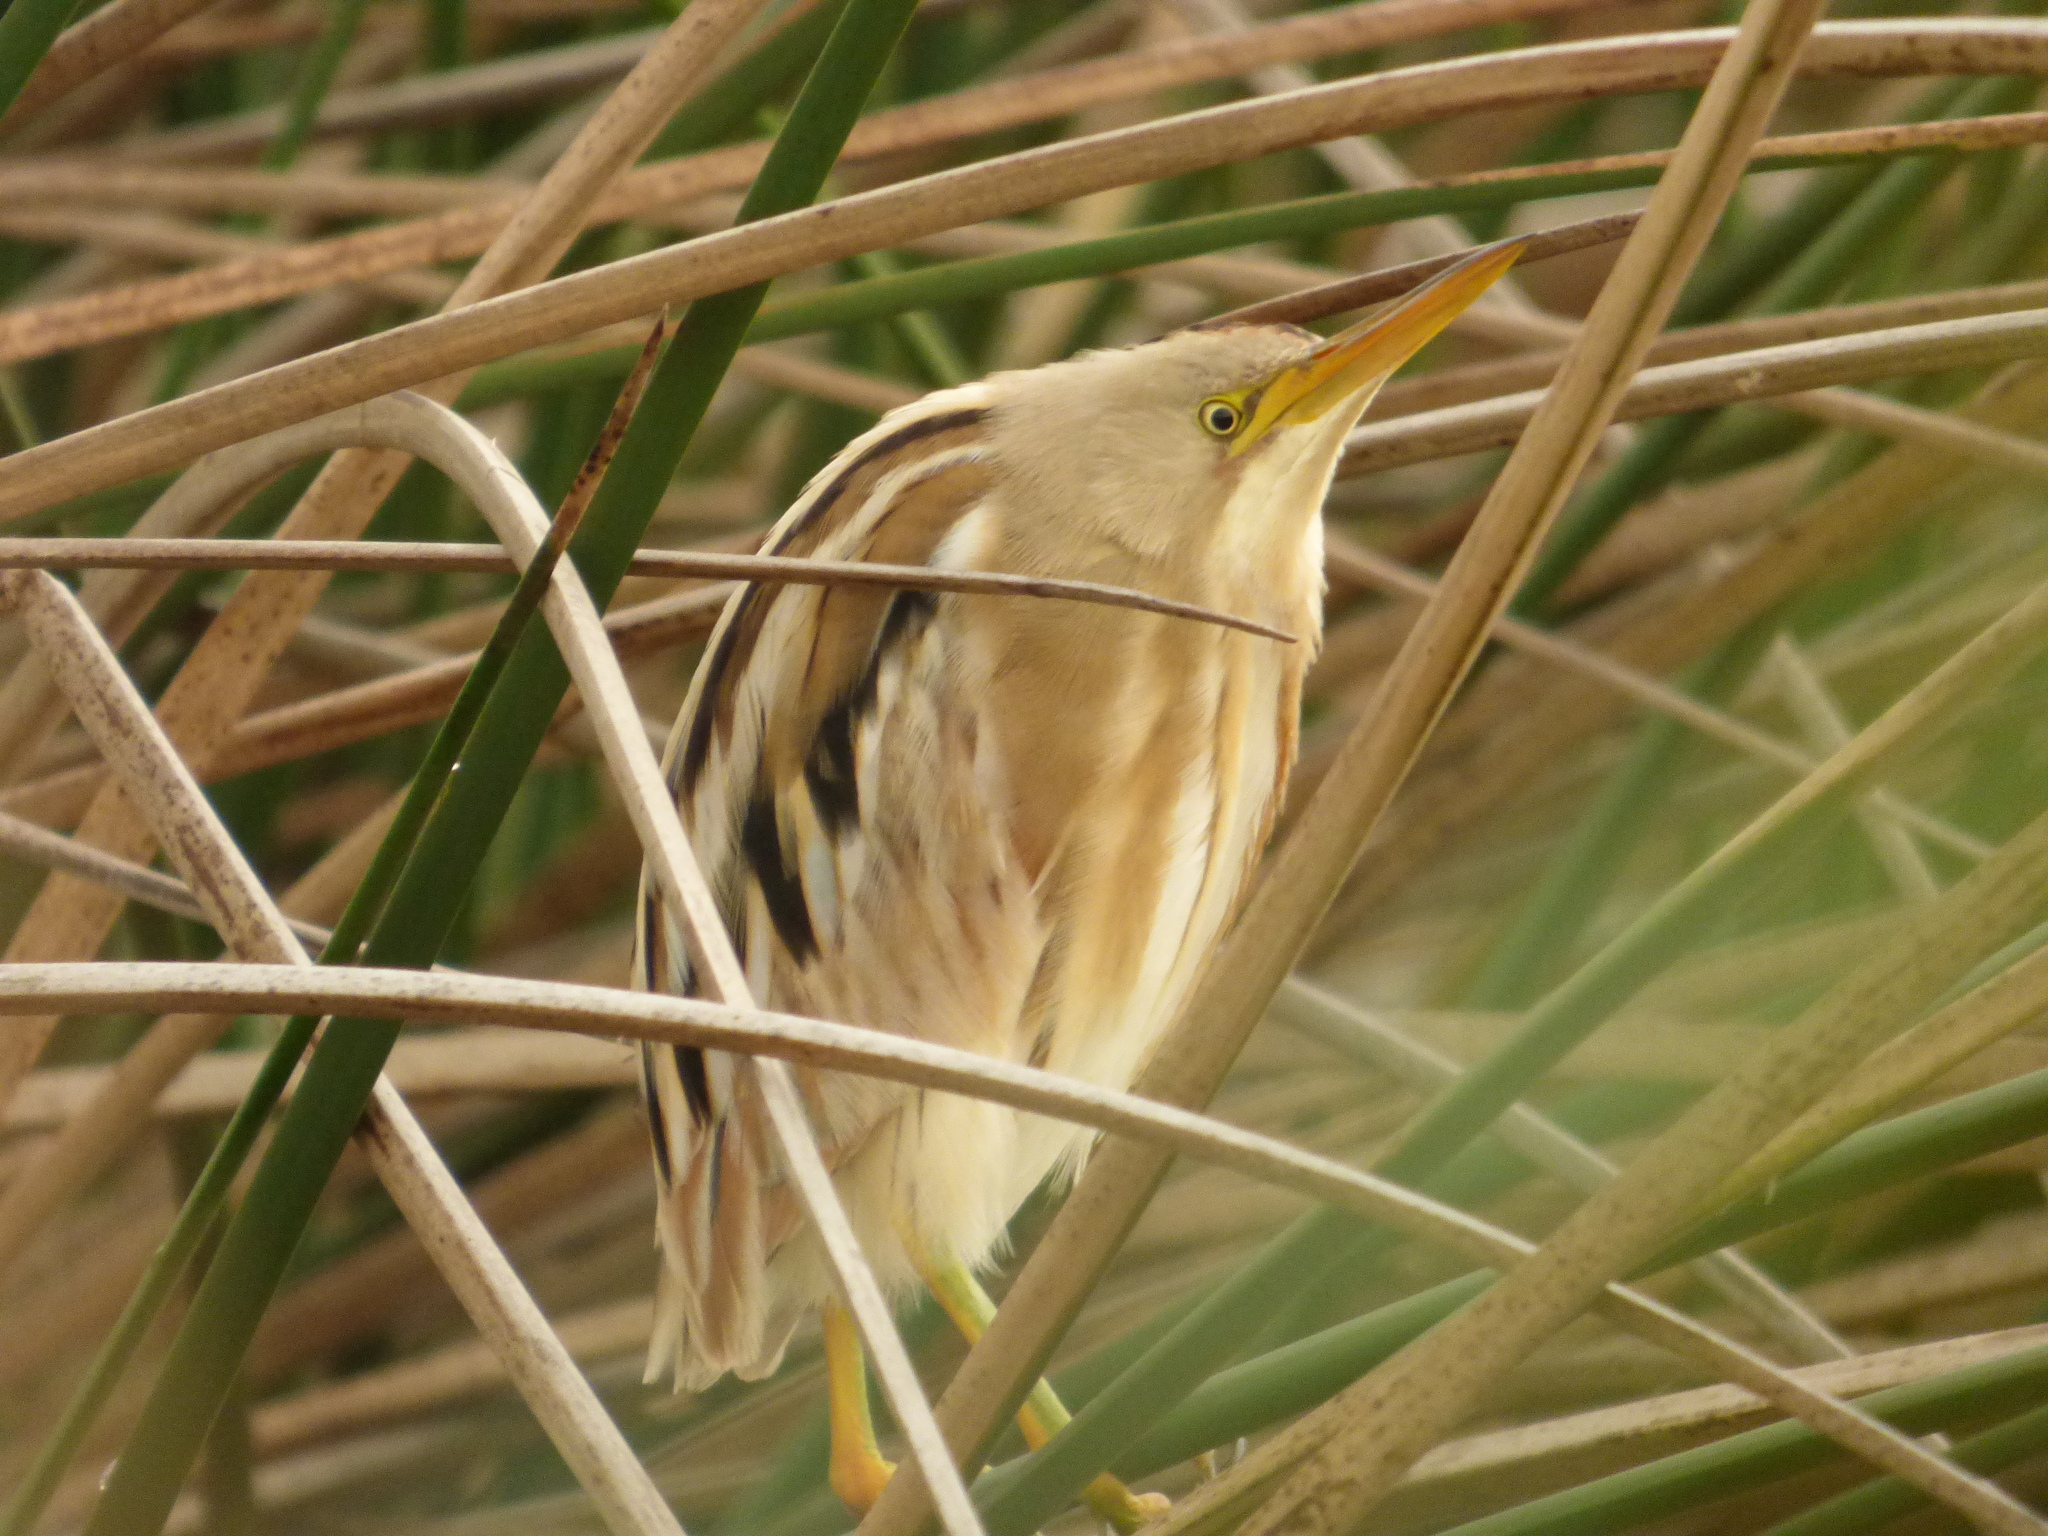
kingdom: Animalia
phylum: Chordata
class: Aves
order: Pelecaniformes
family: Ardeidae
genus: Ixobrychus
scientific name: Ixobrychus involucris
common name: Stripe-backed bittern
